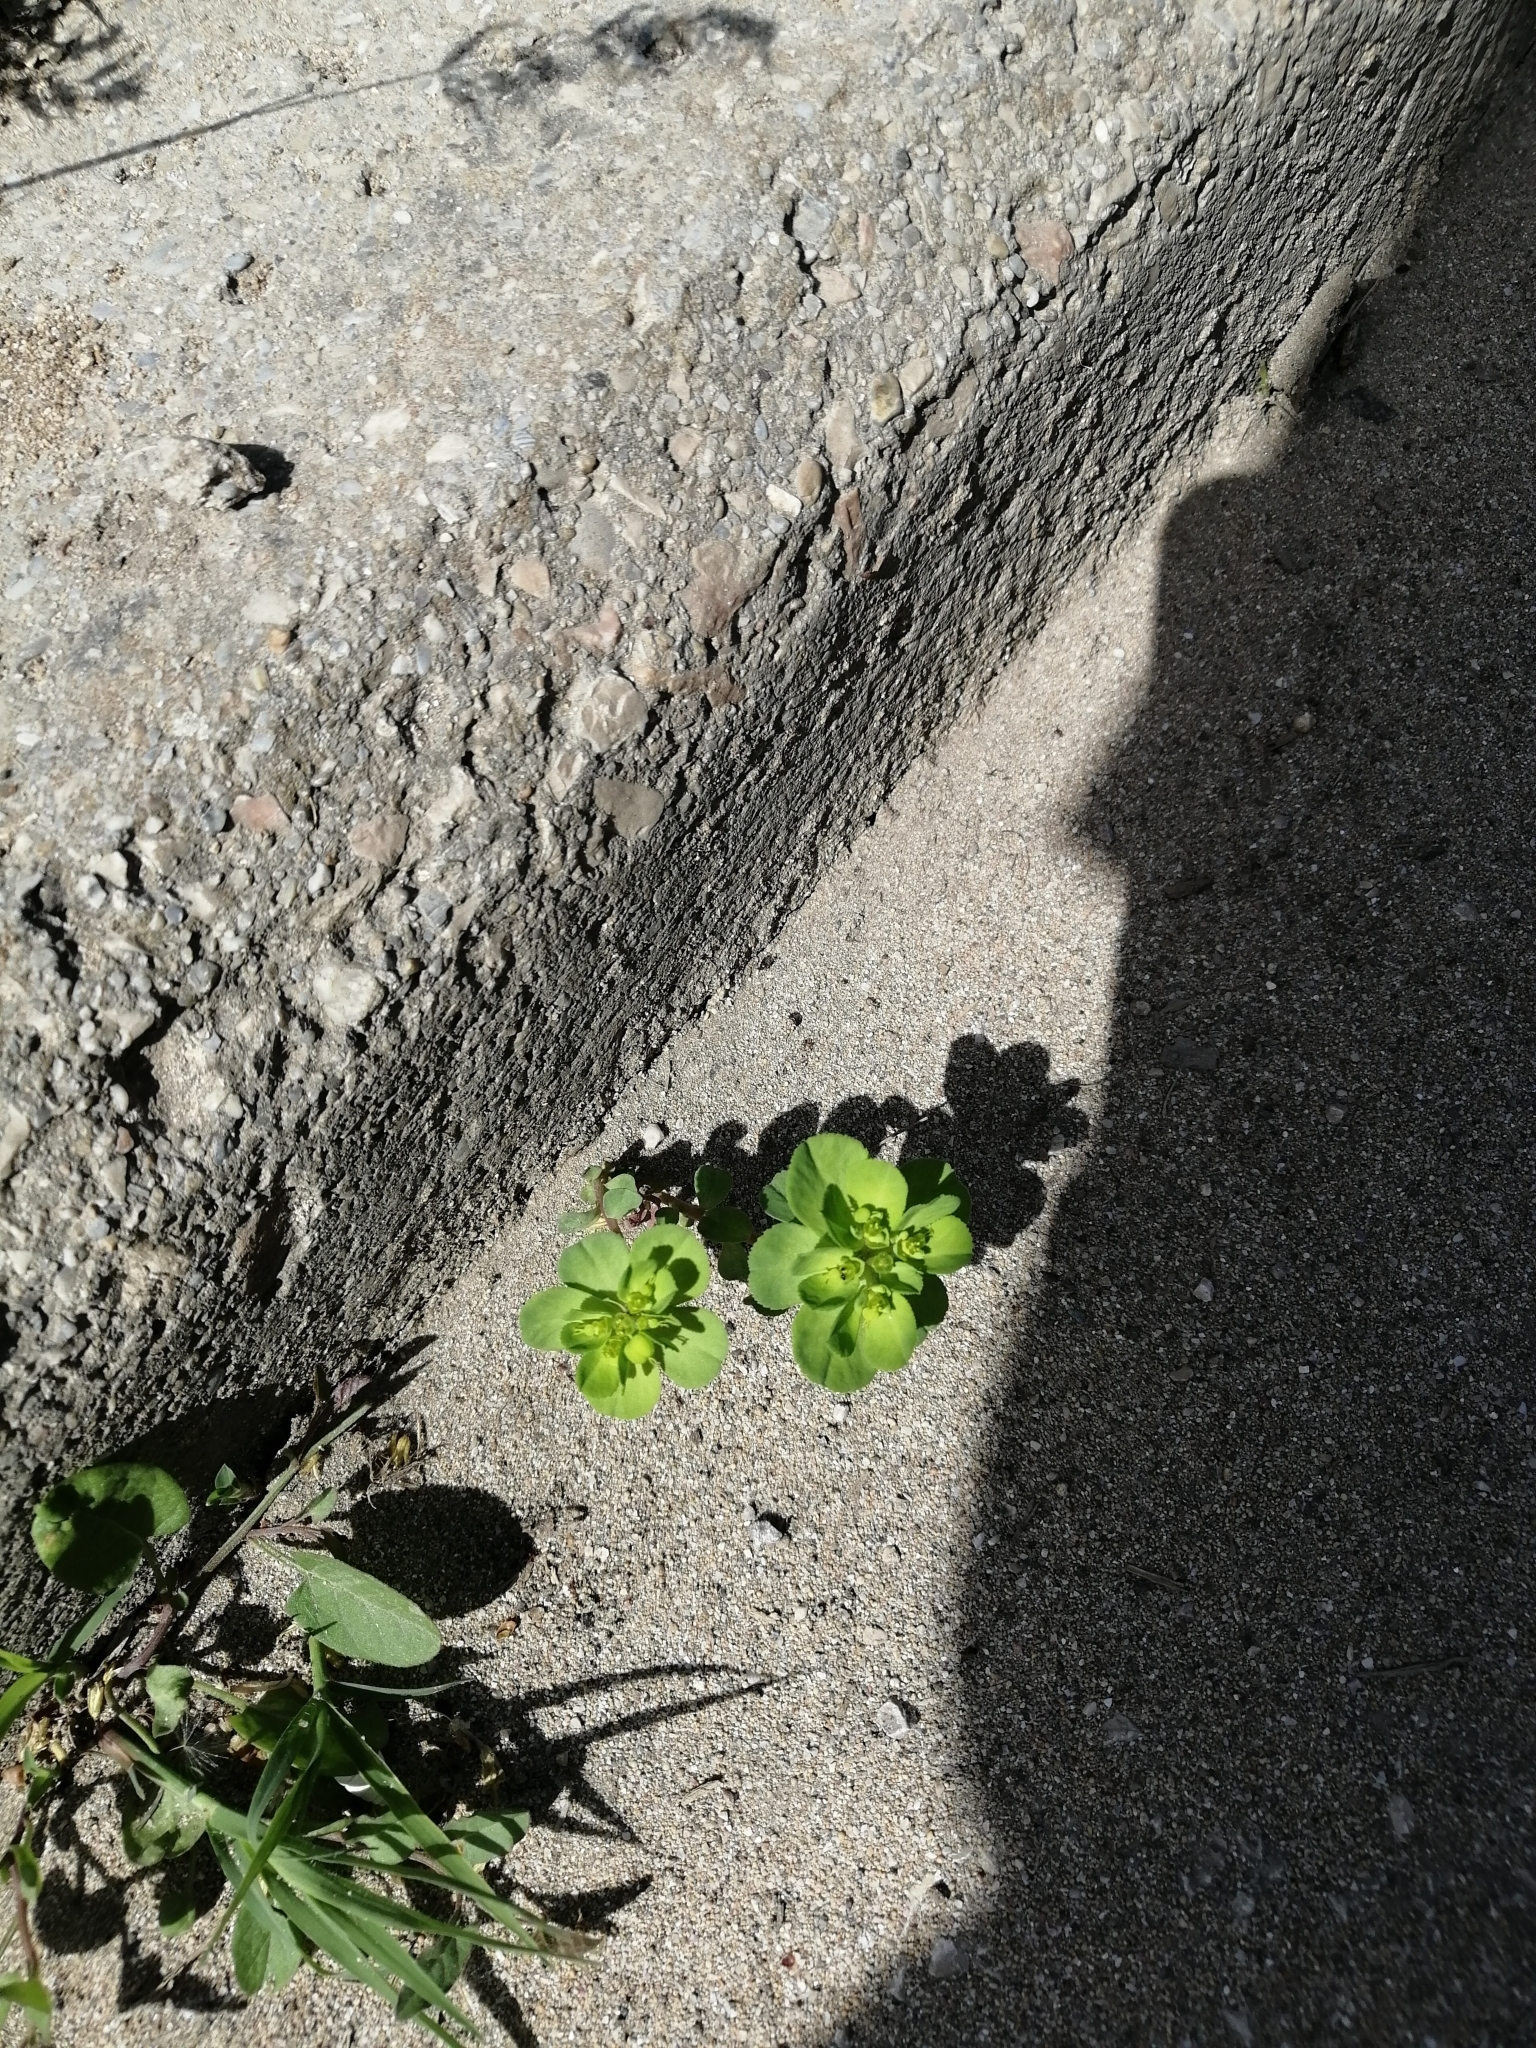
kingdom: Plantae
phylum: Tracheophyta
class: Magnoliopsida
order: Malpighiales
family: Euphorbiaceae
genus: Euphorbia
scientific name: Euphorbia helioscopia
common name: Sun spurge
